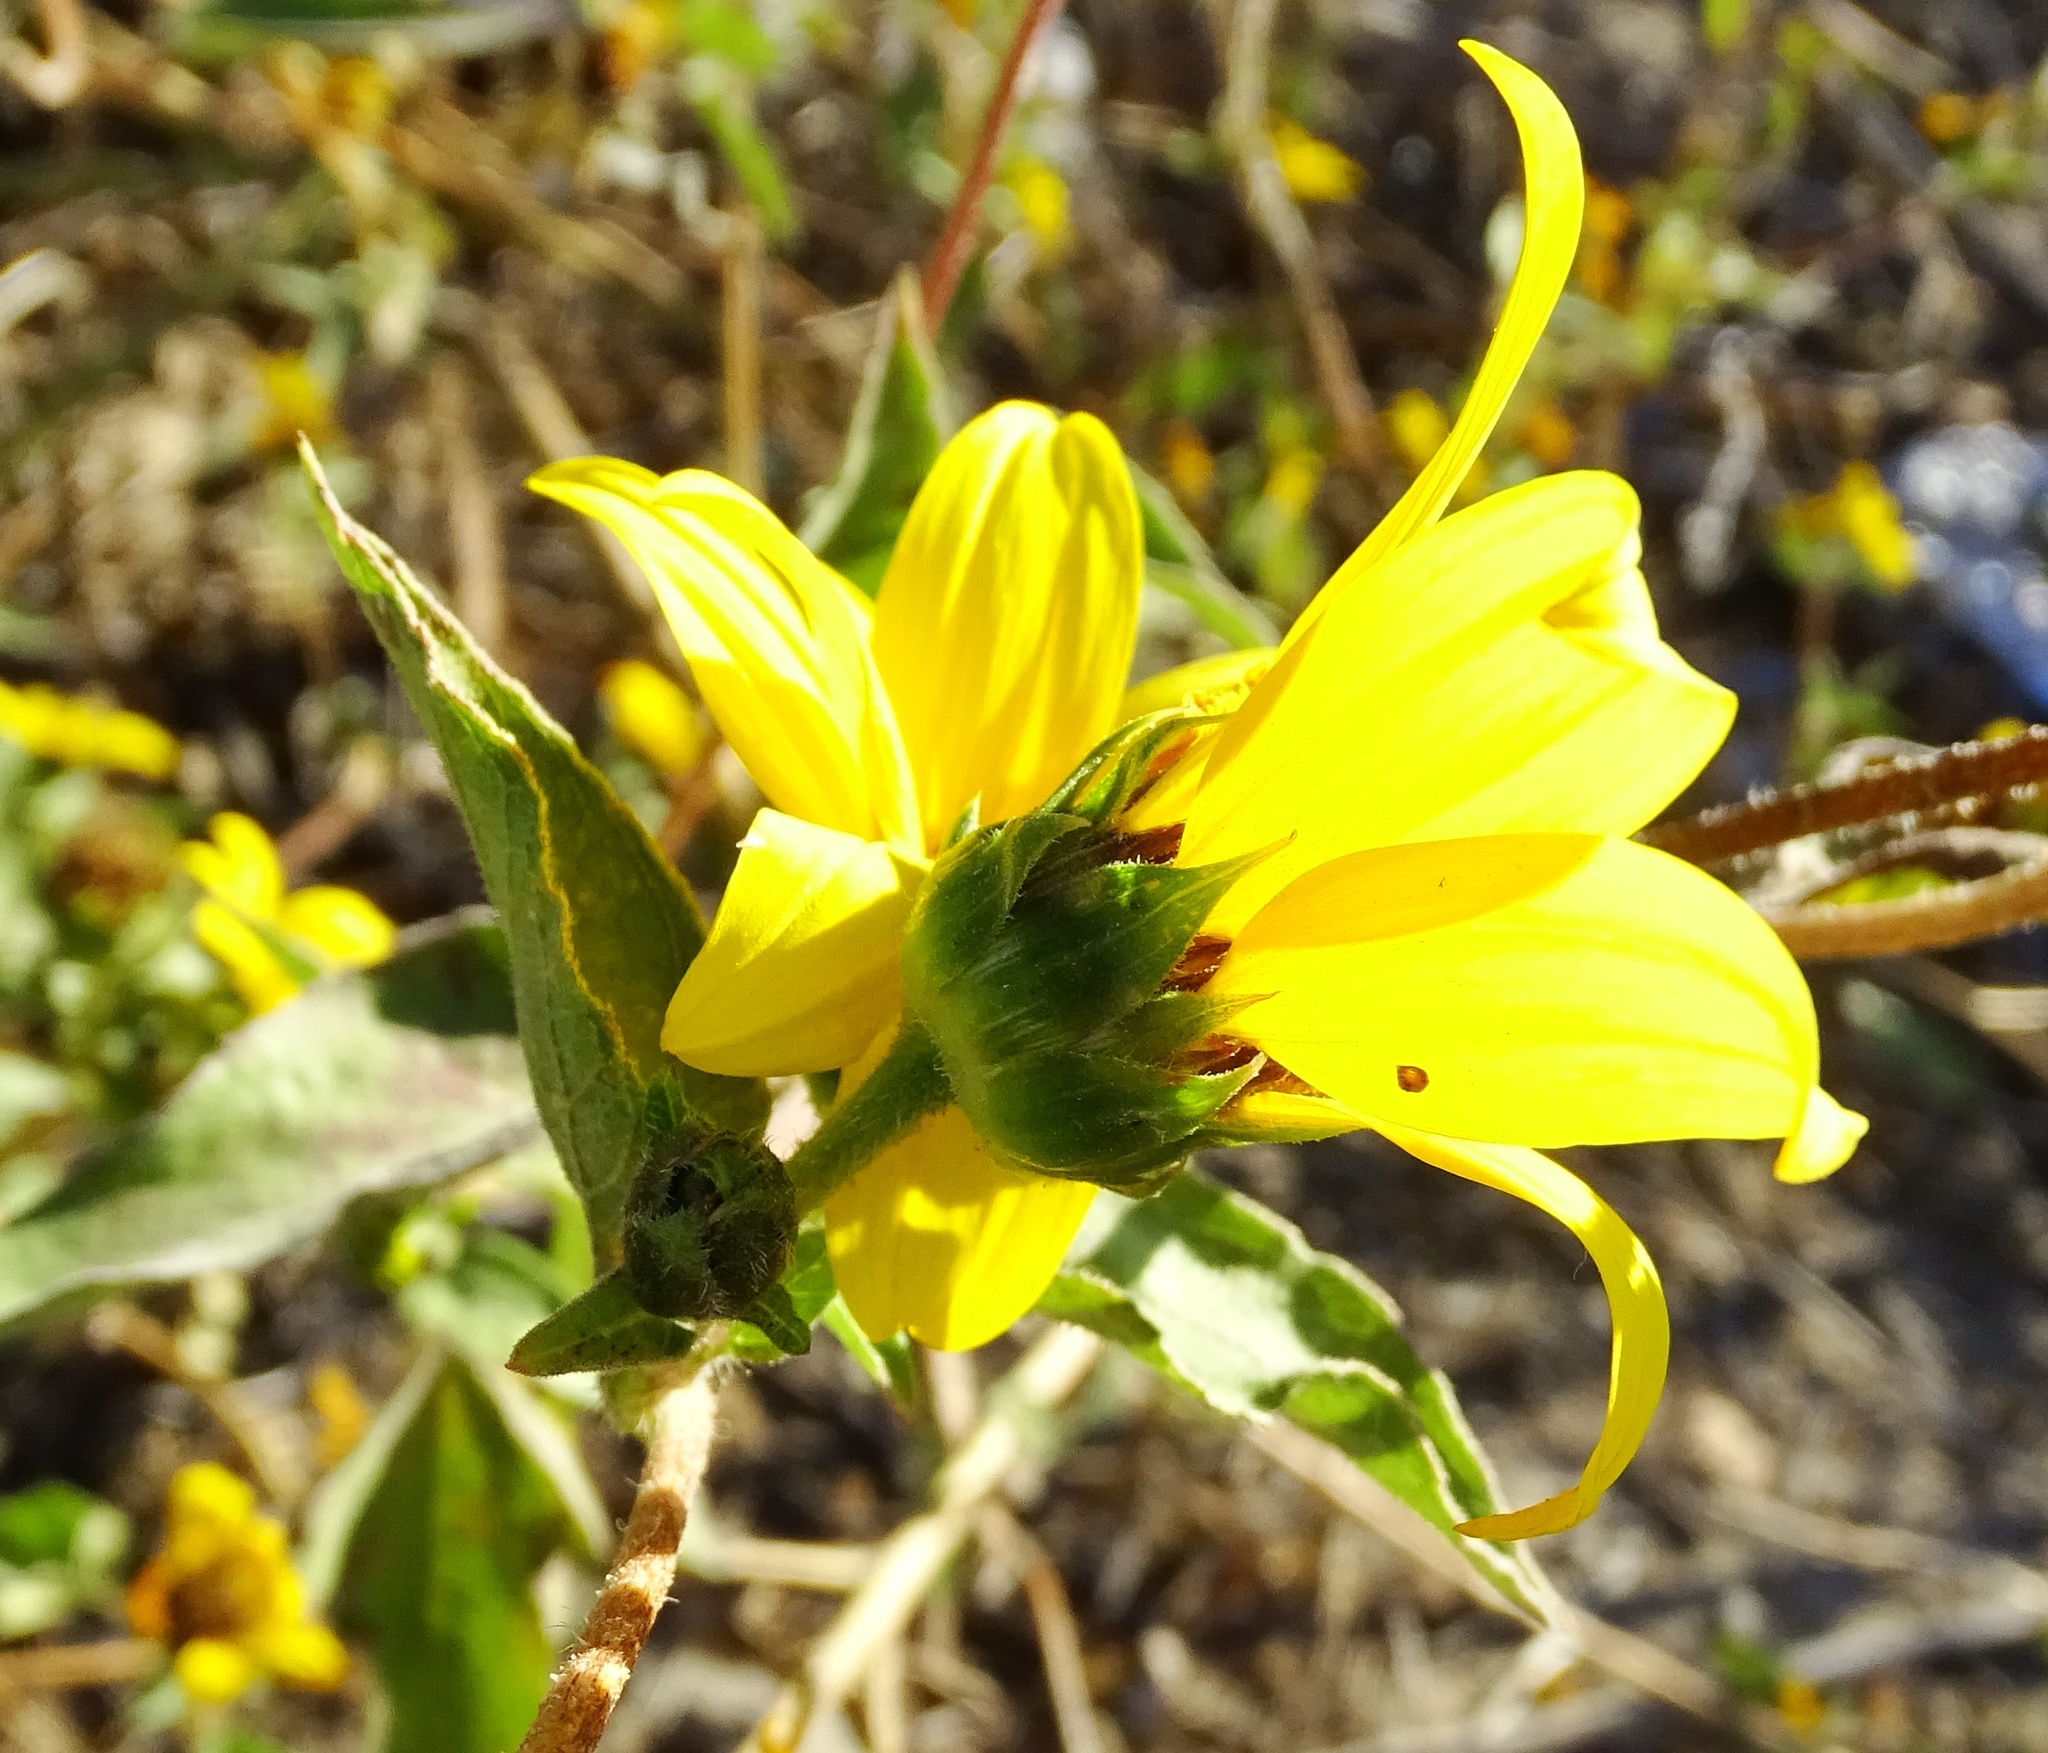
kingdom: Plantae
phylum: Tracheophyta
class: Magnoliopsida
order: Asterales
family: Asteraceae
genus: Helianthus
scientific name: Helianthus annuus
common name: Sunflower
